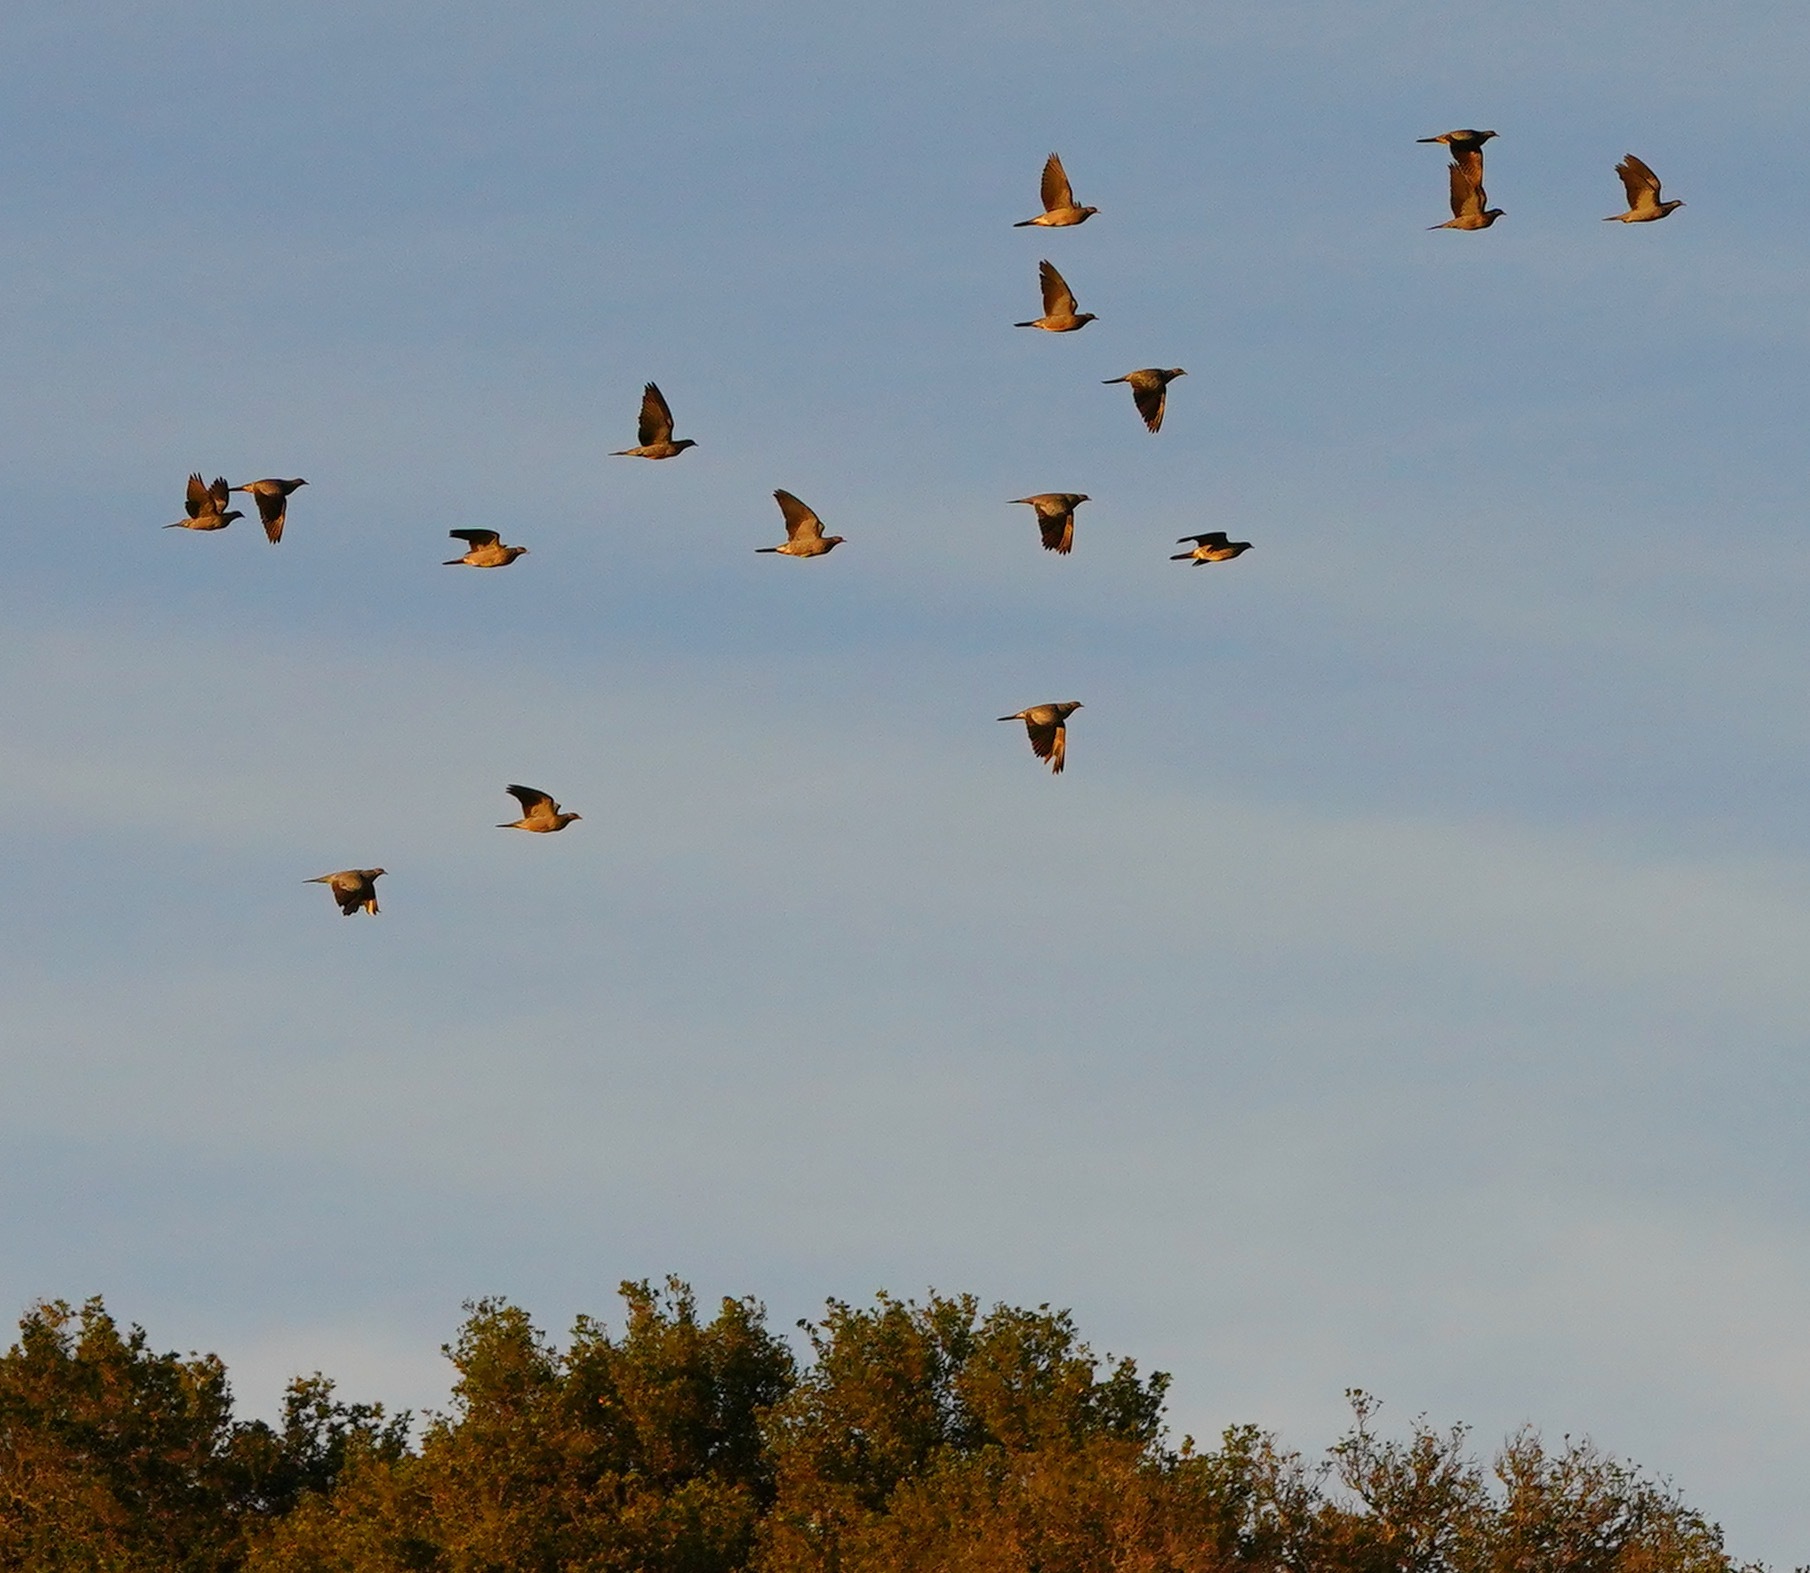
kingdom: Animalia
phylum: Chordata
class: Aves
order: Columbiformes
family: Columbidae
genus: Patagioenas
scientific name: Patagioenas fasciata
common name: Band-tailed pigeon
